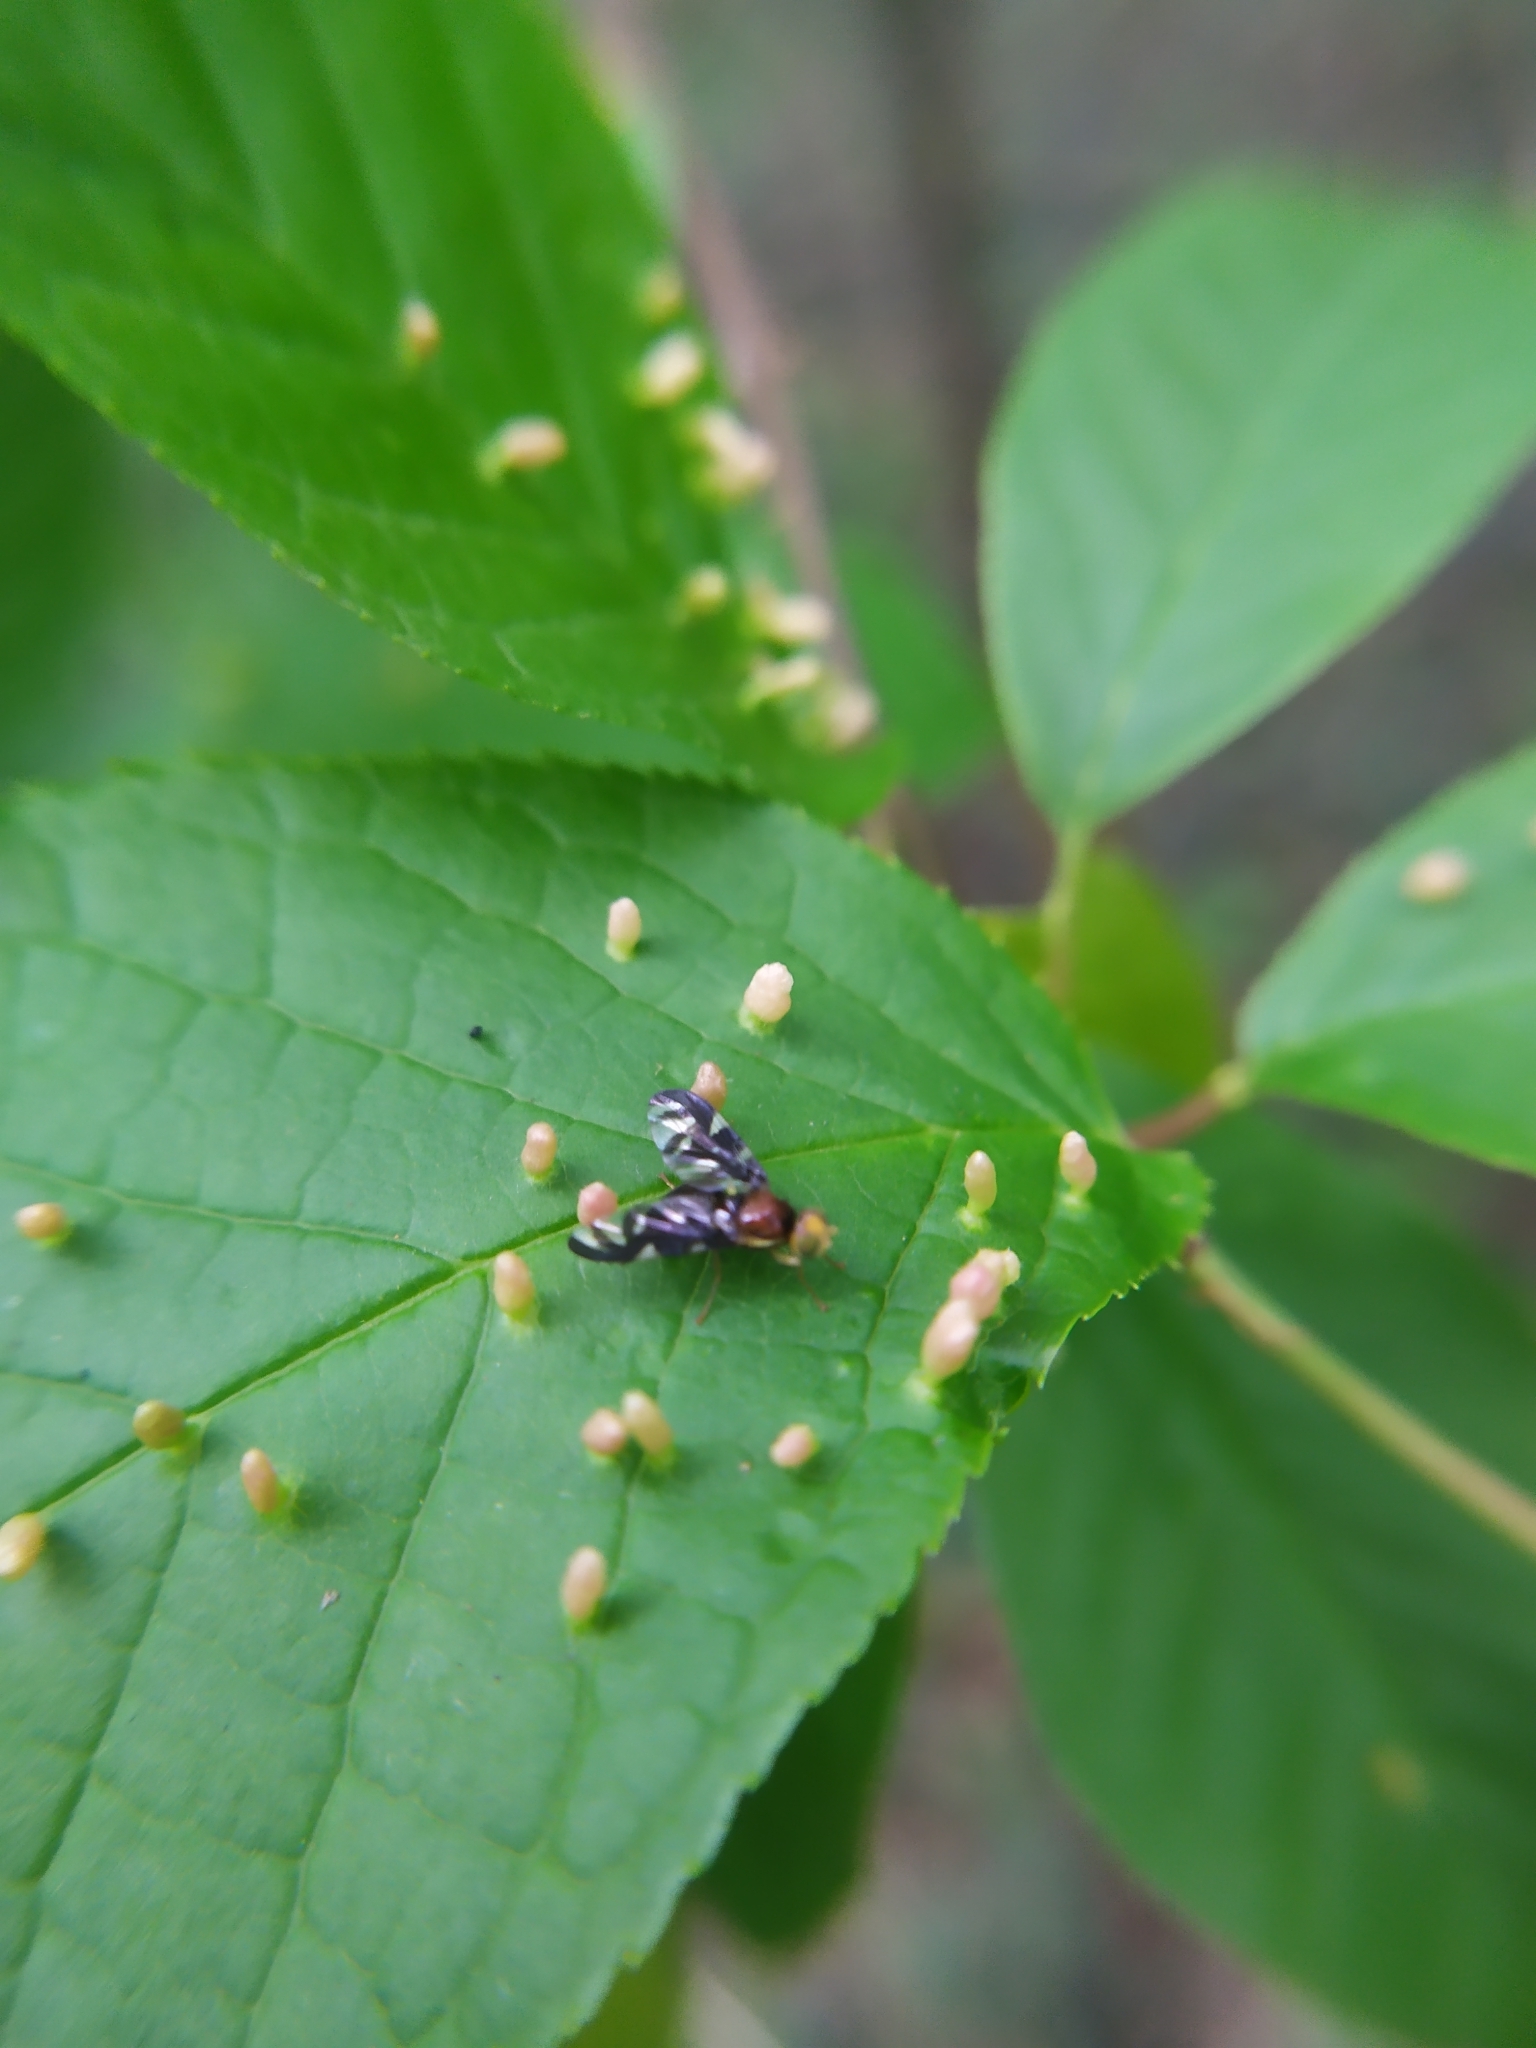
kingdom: Animalia
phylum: Arthropoda
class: Arachnida
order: Trombidiformes
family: Eriophyidae
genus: Phyllocoptes
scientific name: Phyllocoptes eupadi
